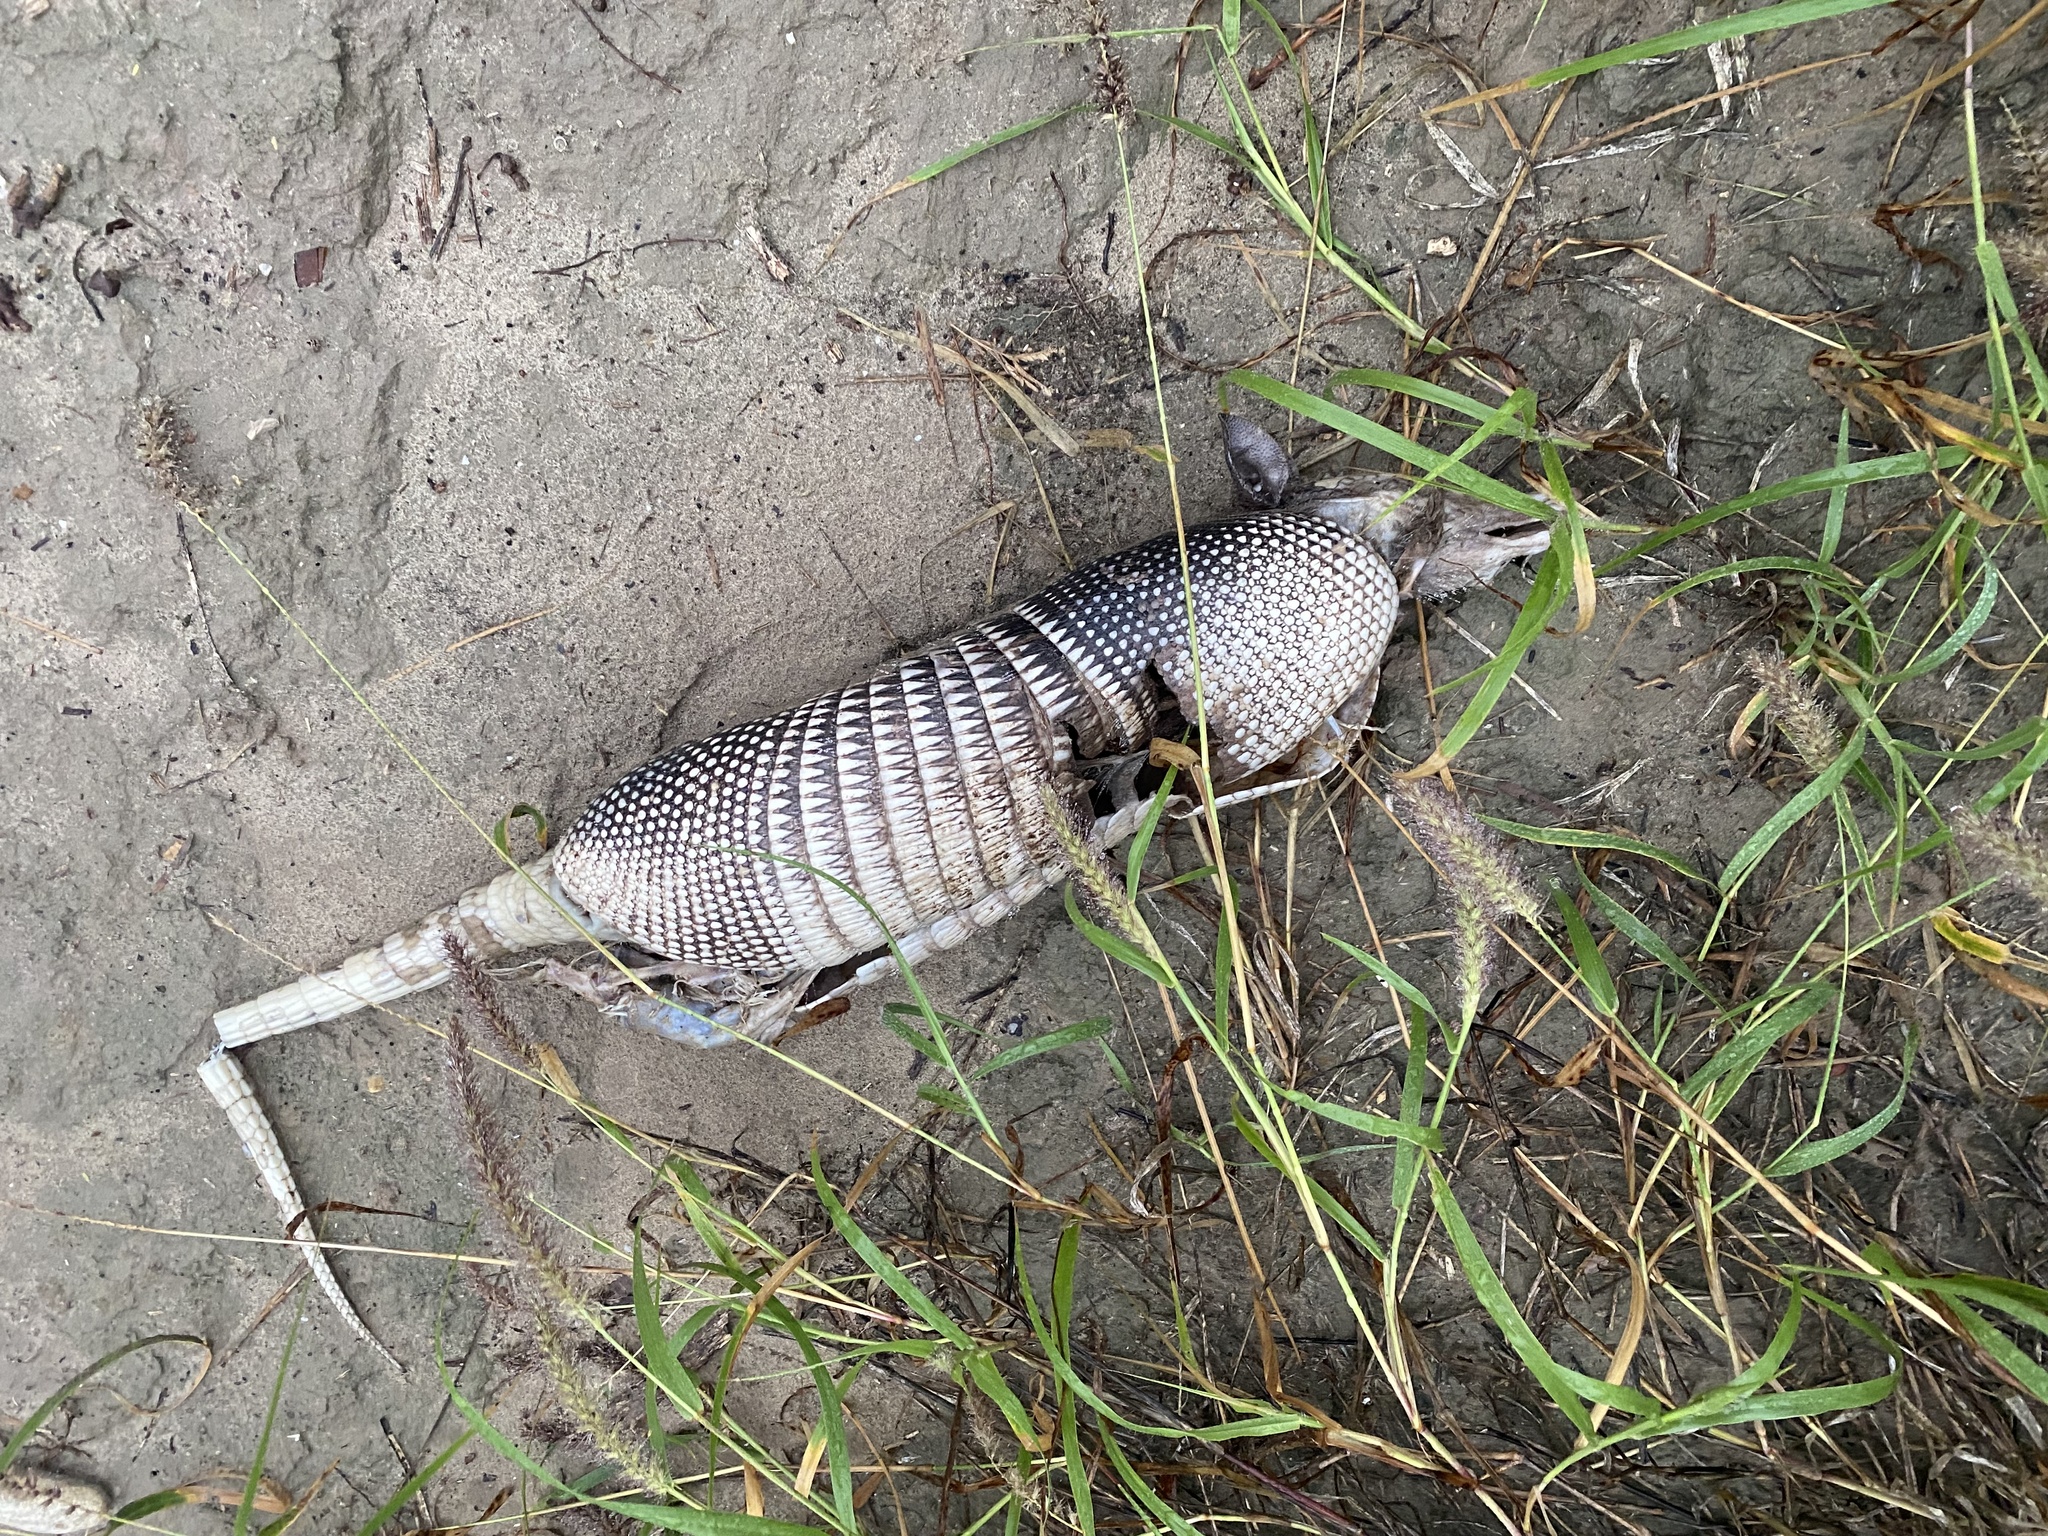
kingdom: Animalia
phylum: Chordata
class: Mammalia
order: Cingulata
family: Dasypodidae
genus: Dasypus
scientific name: Dasypus novemcinctus
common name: Nine-banded armadillo
